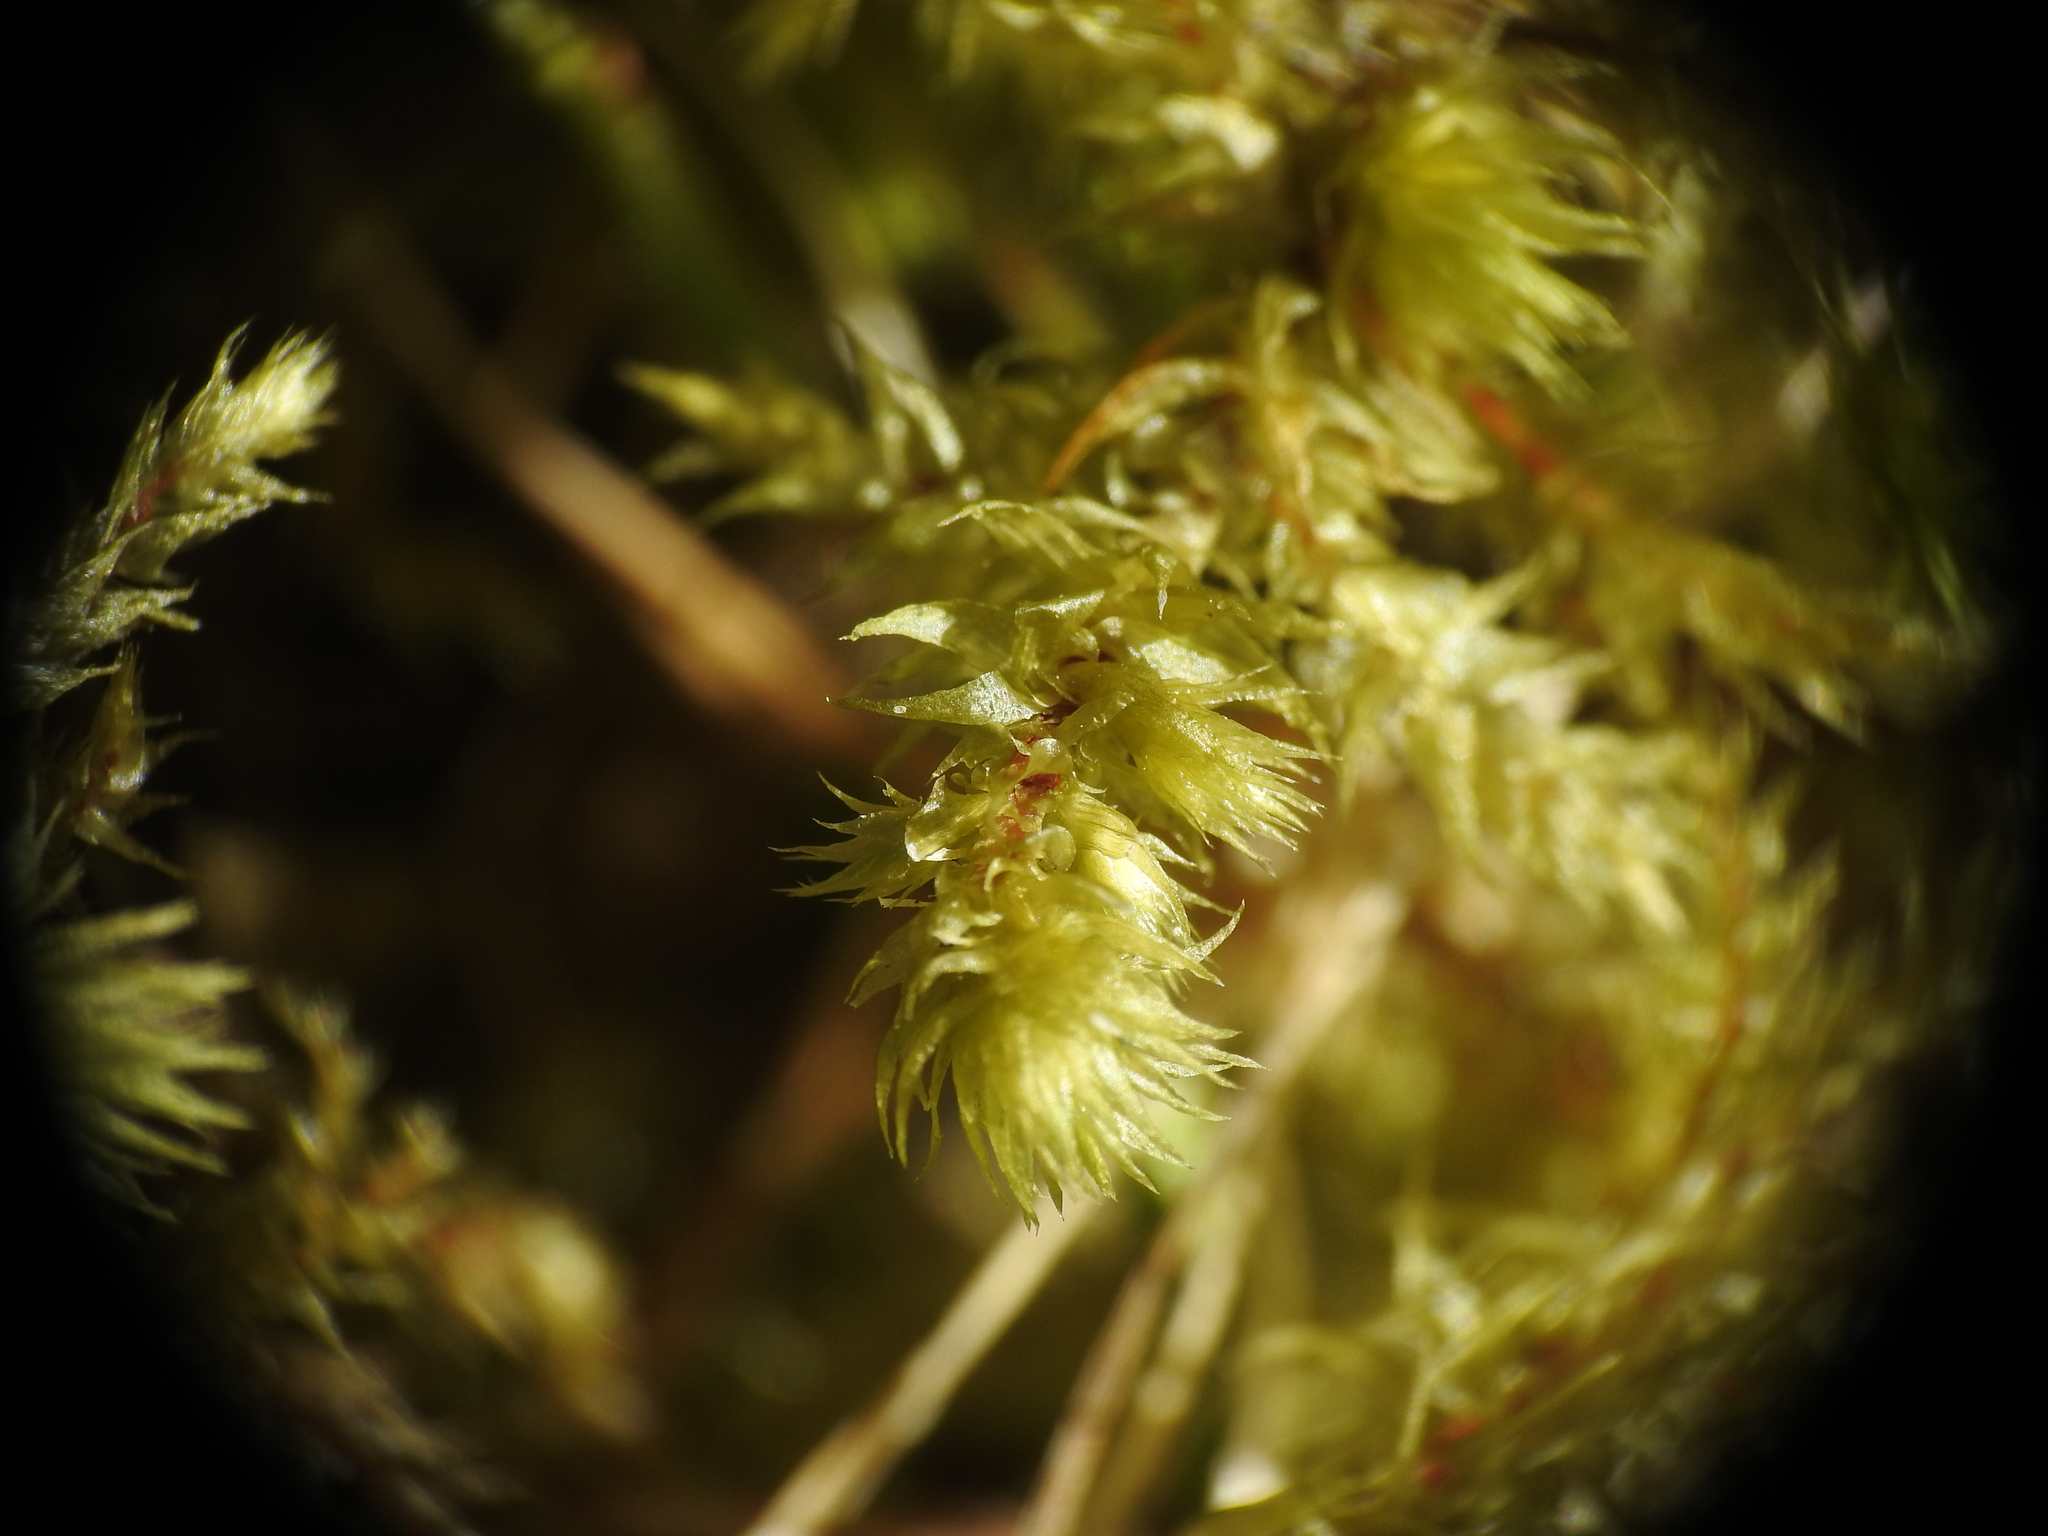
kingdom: Plantae
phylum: Bryophyta
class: Bryopsida
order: Hypnales
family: Hylocomiaceae
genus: Hylocomiadelphus
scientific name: Hylocomiadelphus triquetrus
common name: Rough goose neck moss
